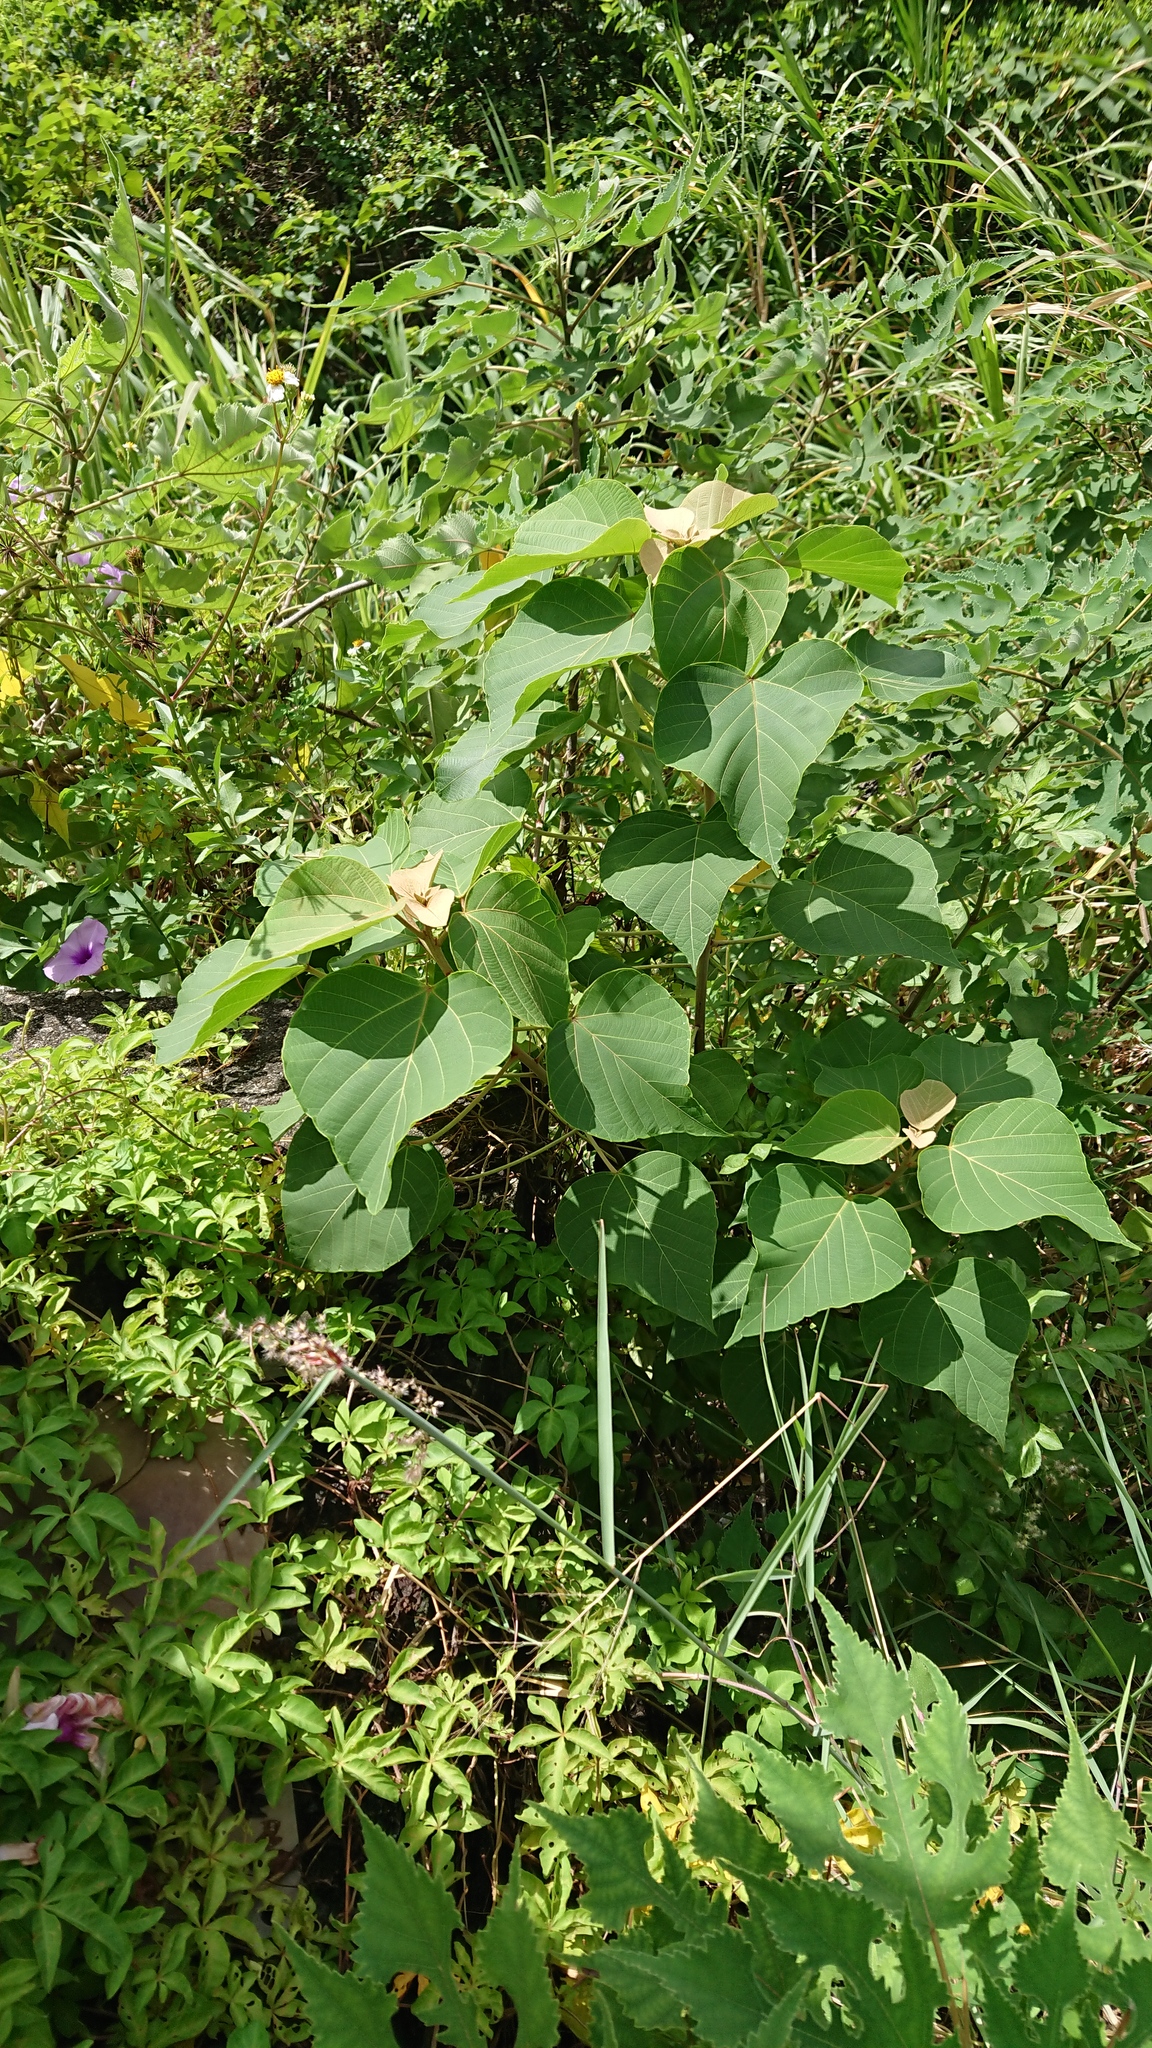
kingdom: Plantae
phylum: Tracheophyta
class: Magnoliopsida
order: Malpighiales
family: Euphorbiaceae
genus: Mallotus
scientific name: Mallotus japonicus
